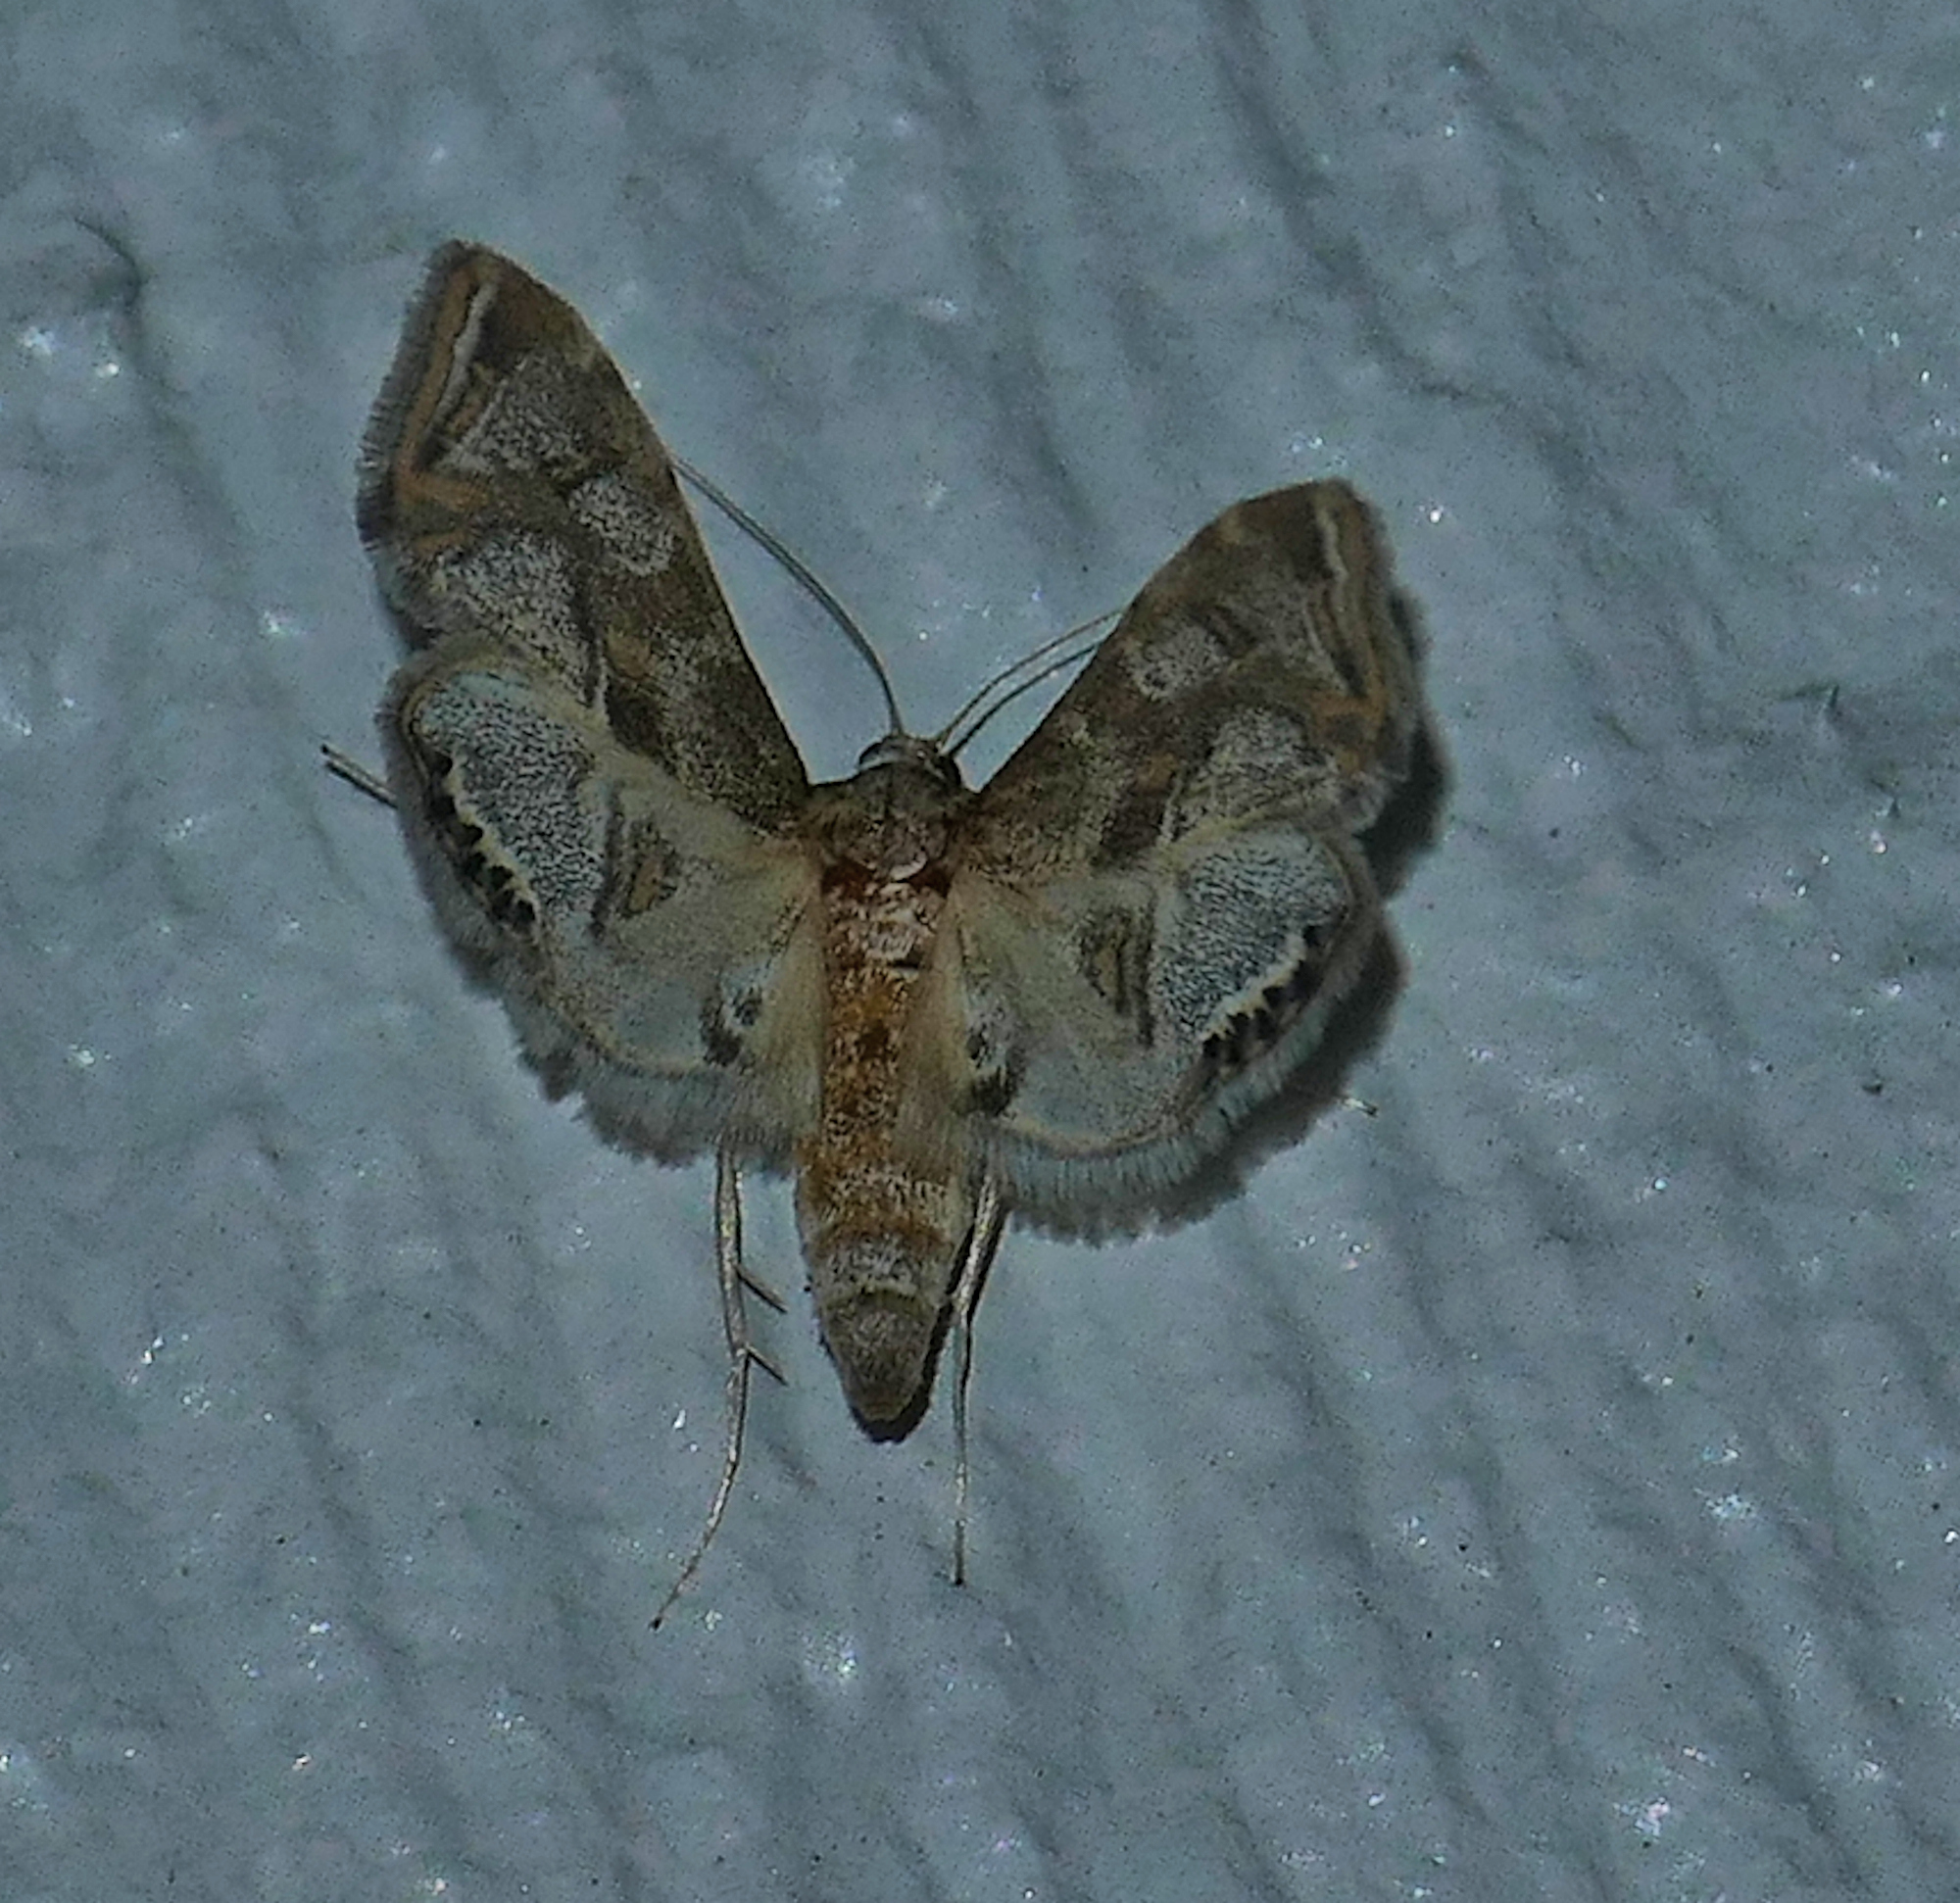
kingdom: Animalia
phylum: Arthropoda
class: Insecta
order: Lepidoptera
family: Crambidae
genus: Petrophila
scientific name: Petrophila longipennis
